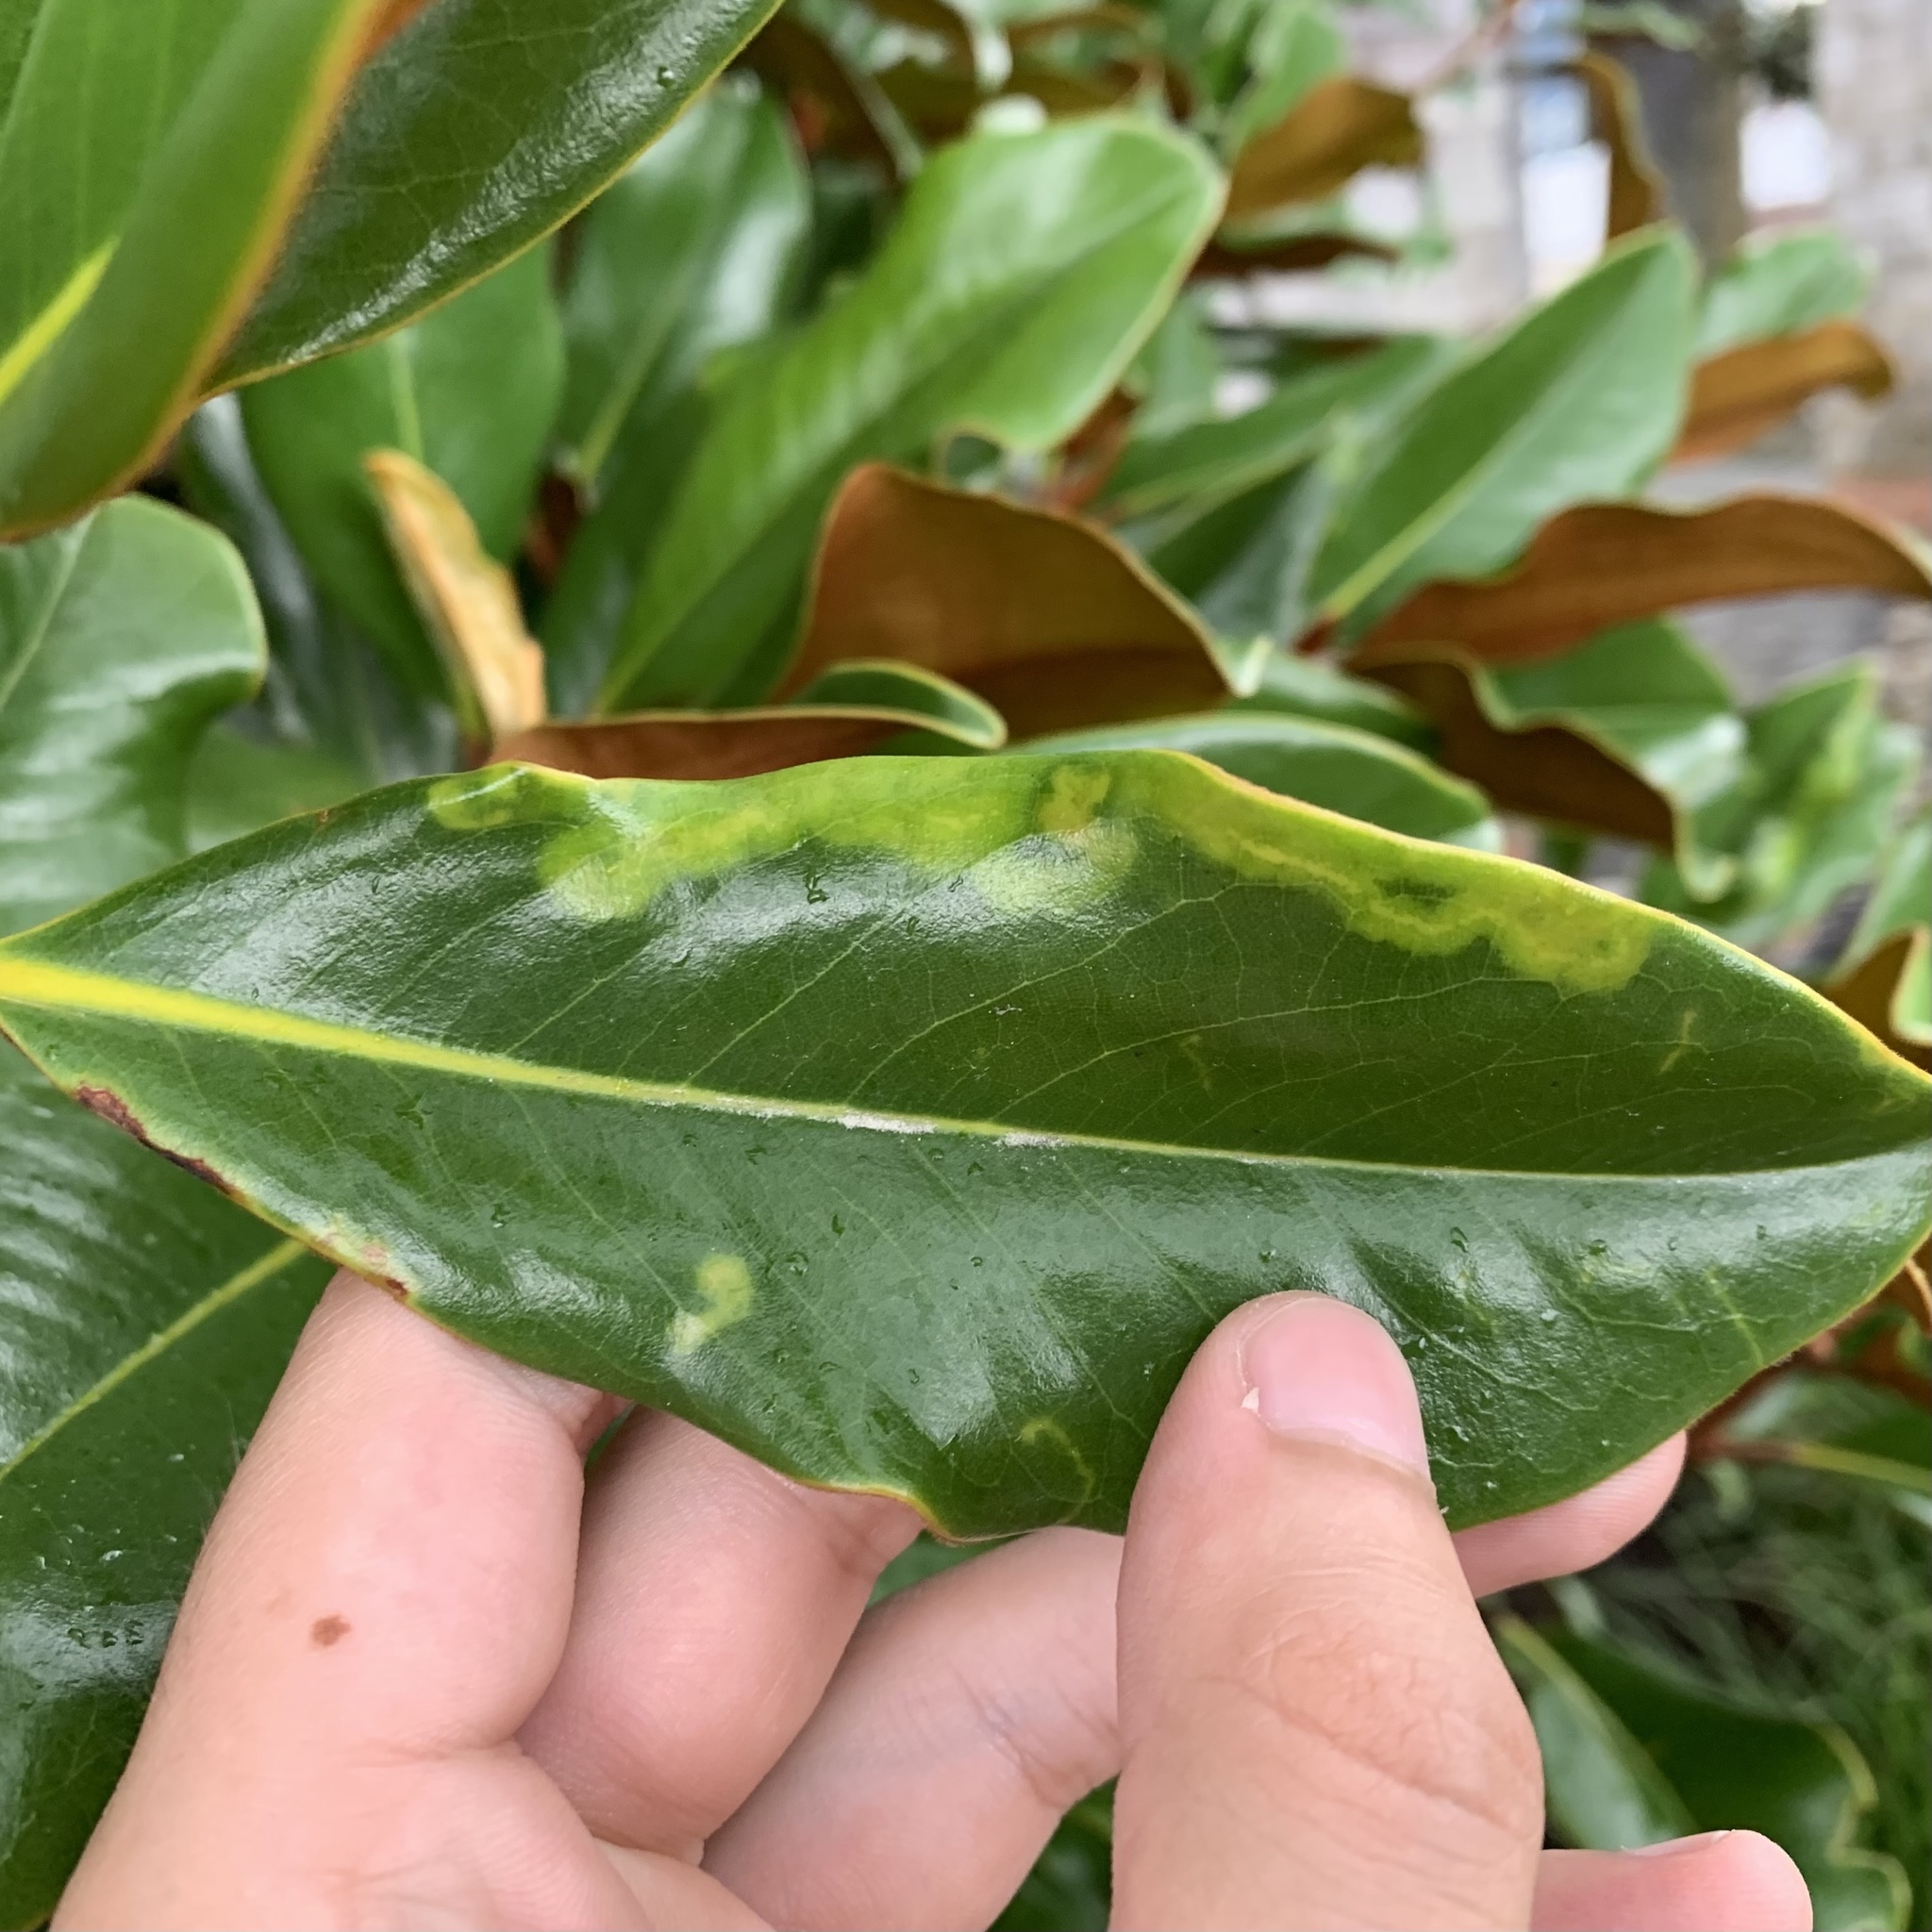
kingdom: Animalia
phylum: Arthropoda
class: Insecta
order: Lepidoptera
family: Gracillariidae
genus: Phyllocnistis
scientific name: Phyllocnistis liriodendronella
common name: Tulip tree leaf miner
